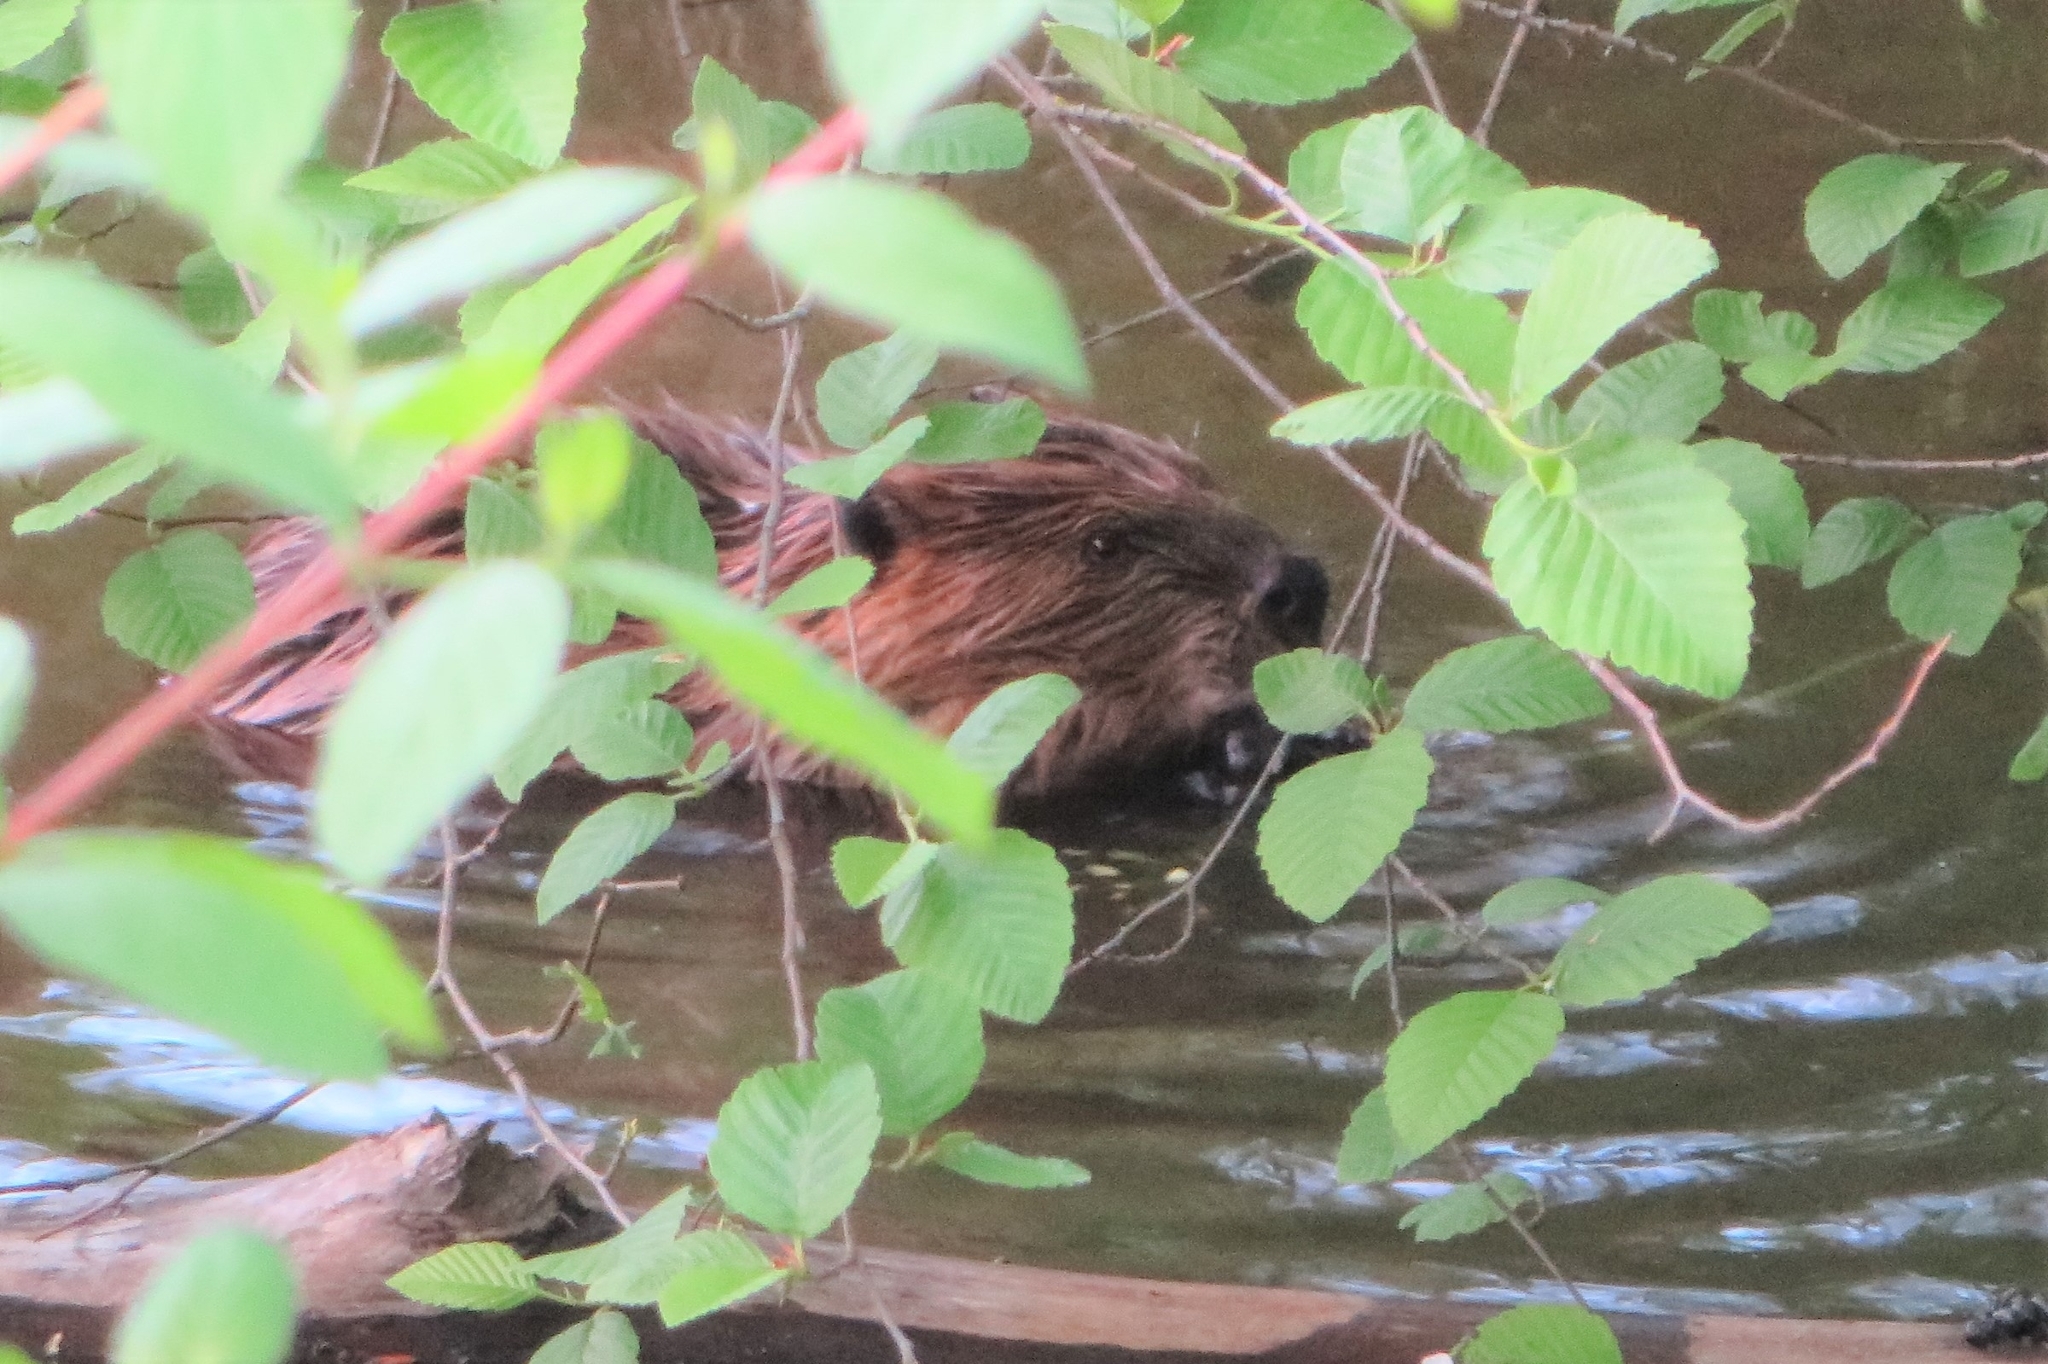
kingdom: Animalia
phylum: Chordata
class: Mammalia
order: Rodentia
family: Castoridae
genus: Castor
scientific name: Castor canadensis
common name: American beaver
